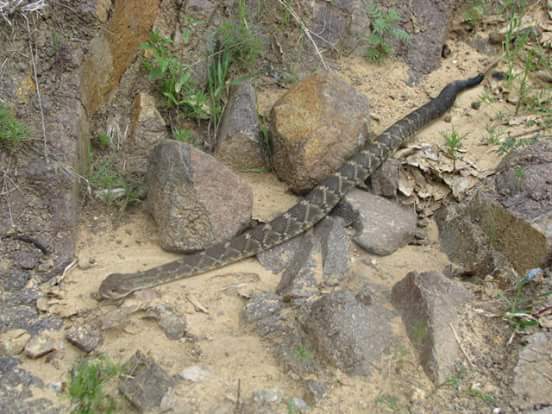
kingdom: Animalia
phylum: Chordata
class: Squamata
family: Viperidae
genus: Crotalus
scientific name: Crotalus molossus
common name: Black tailed rattlesnake
